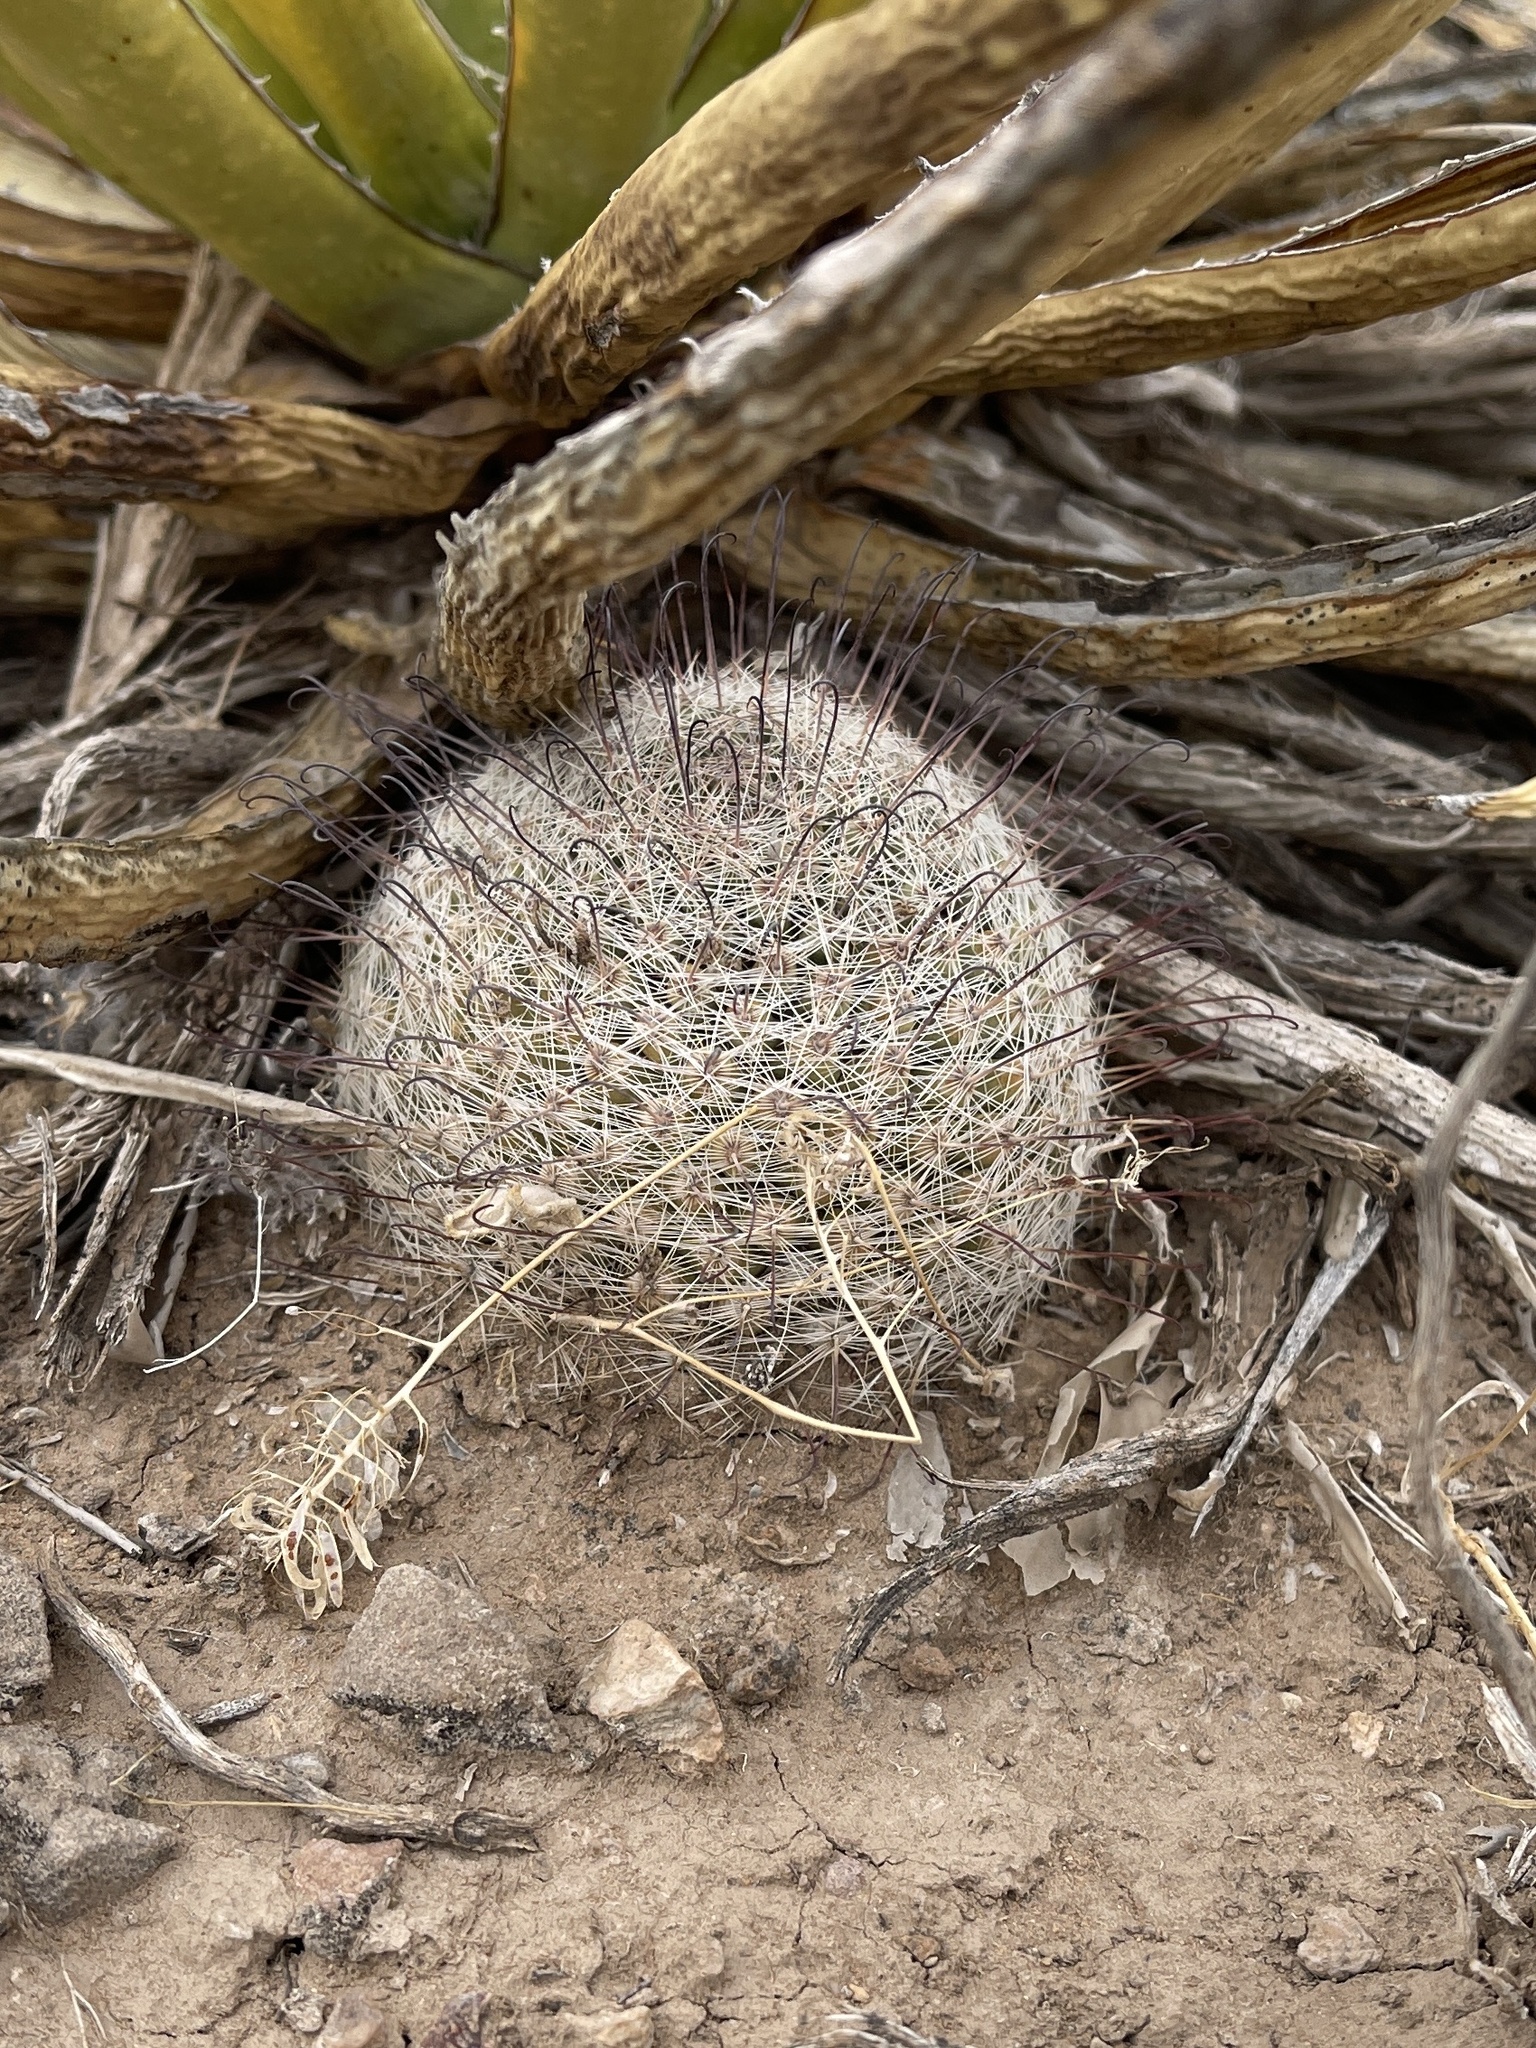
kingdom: Plantae
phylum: Tracheophyta
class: Magnoliopsida
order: Caryophyllales
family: Cactaceae
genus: Cochemiea
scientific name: Cochemiea grahamii
